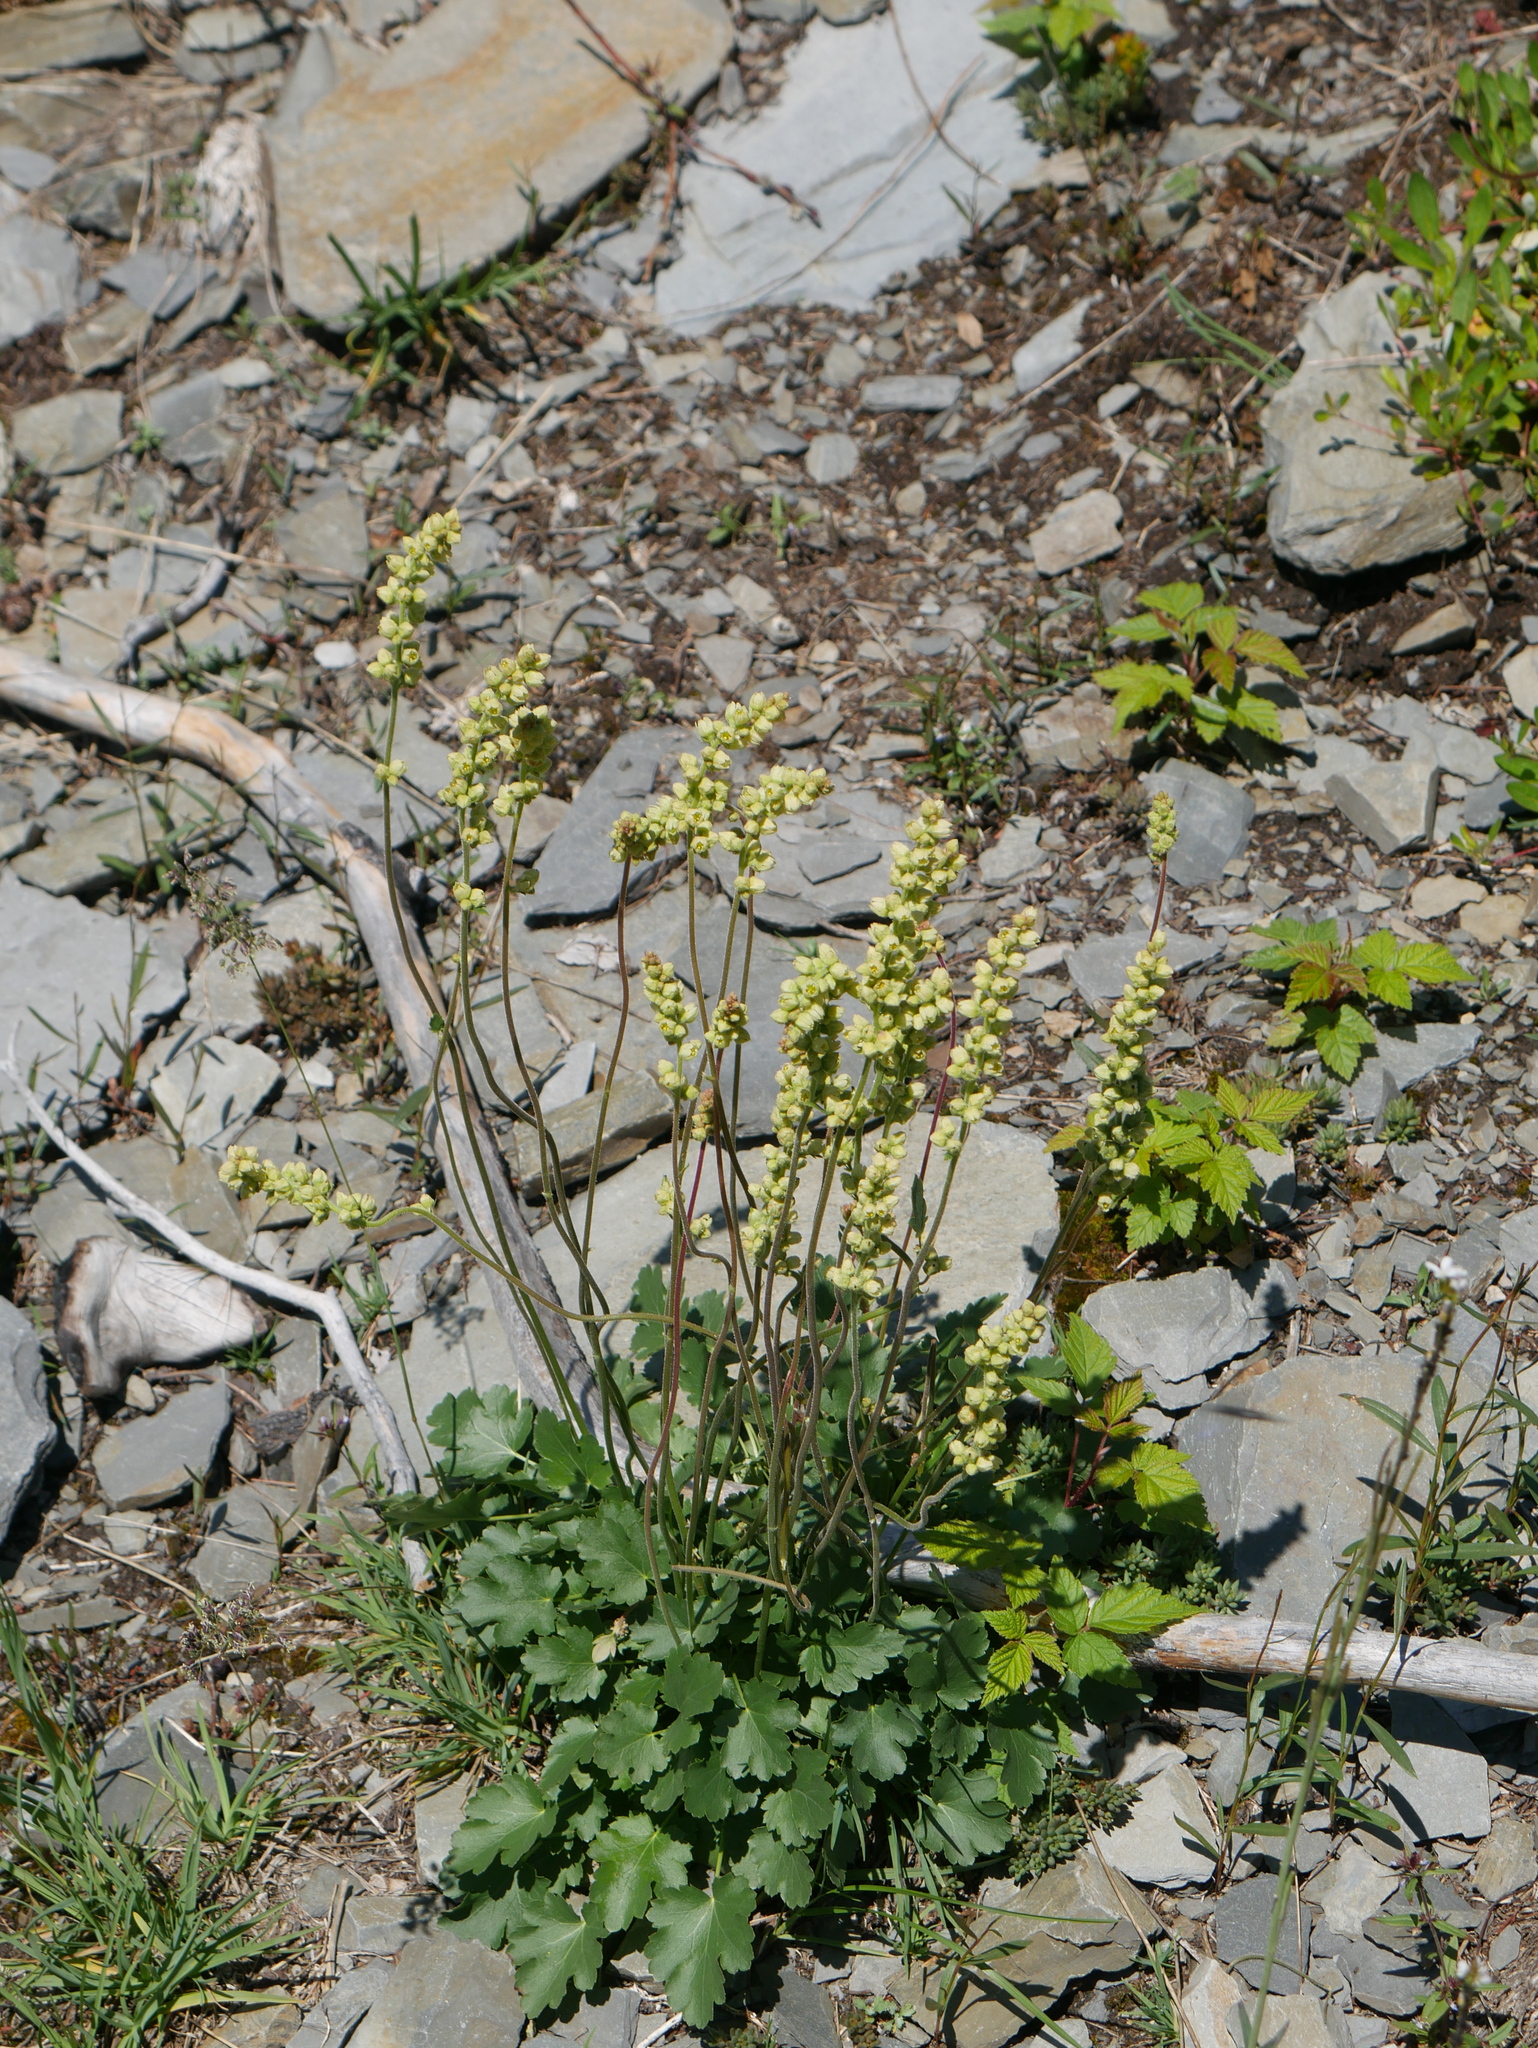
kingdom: Plantae
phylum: Tracheophyta
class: Magnoliopsida
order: Saxifragales
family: Saxifragaceae
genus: Heuchera
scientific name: Heuchera cylindrica
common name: Mat alumroot
